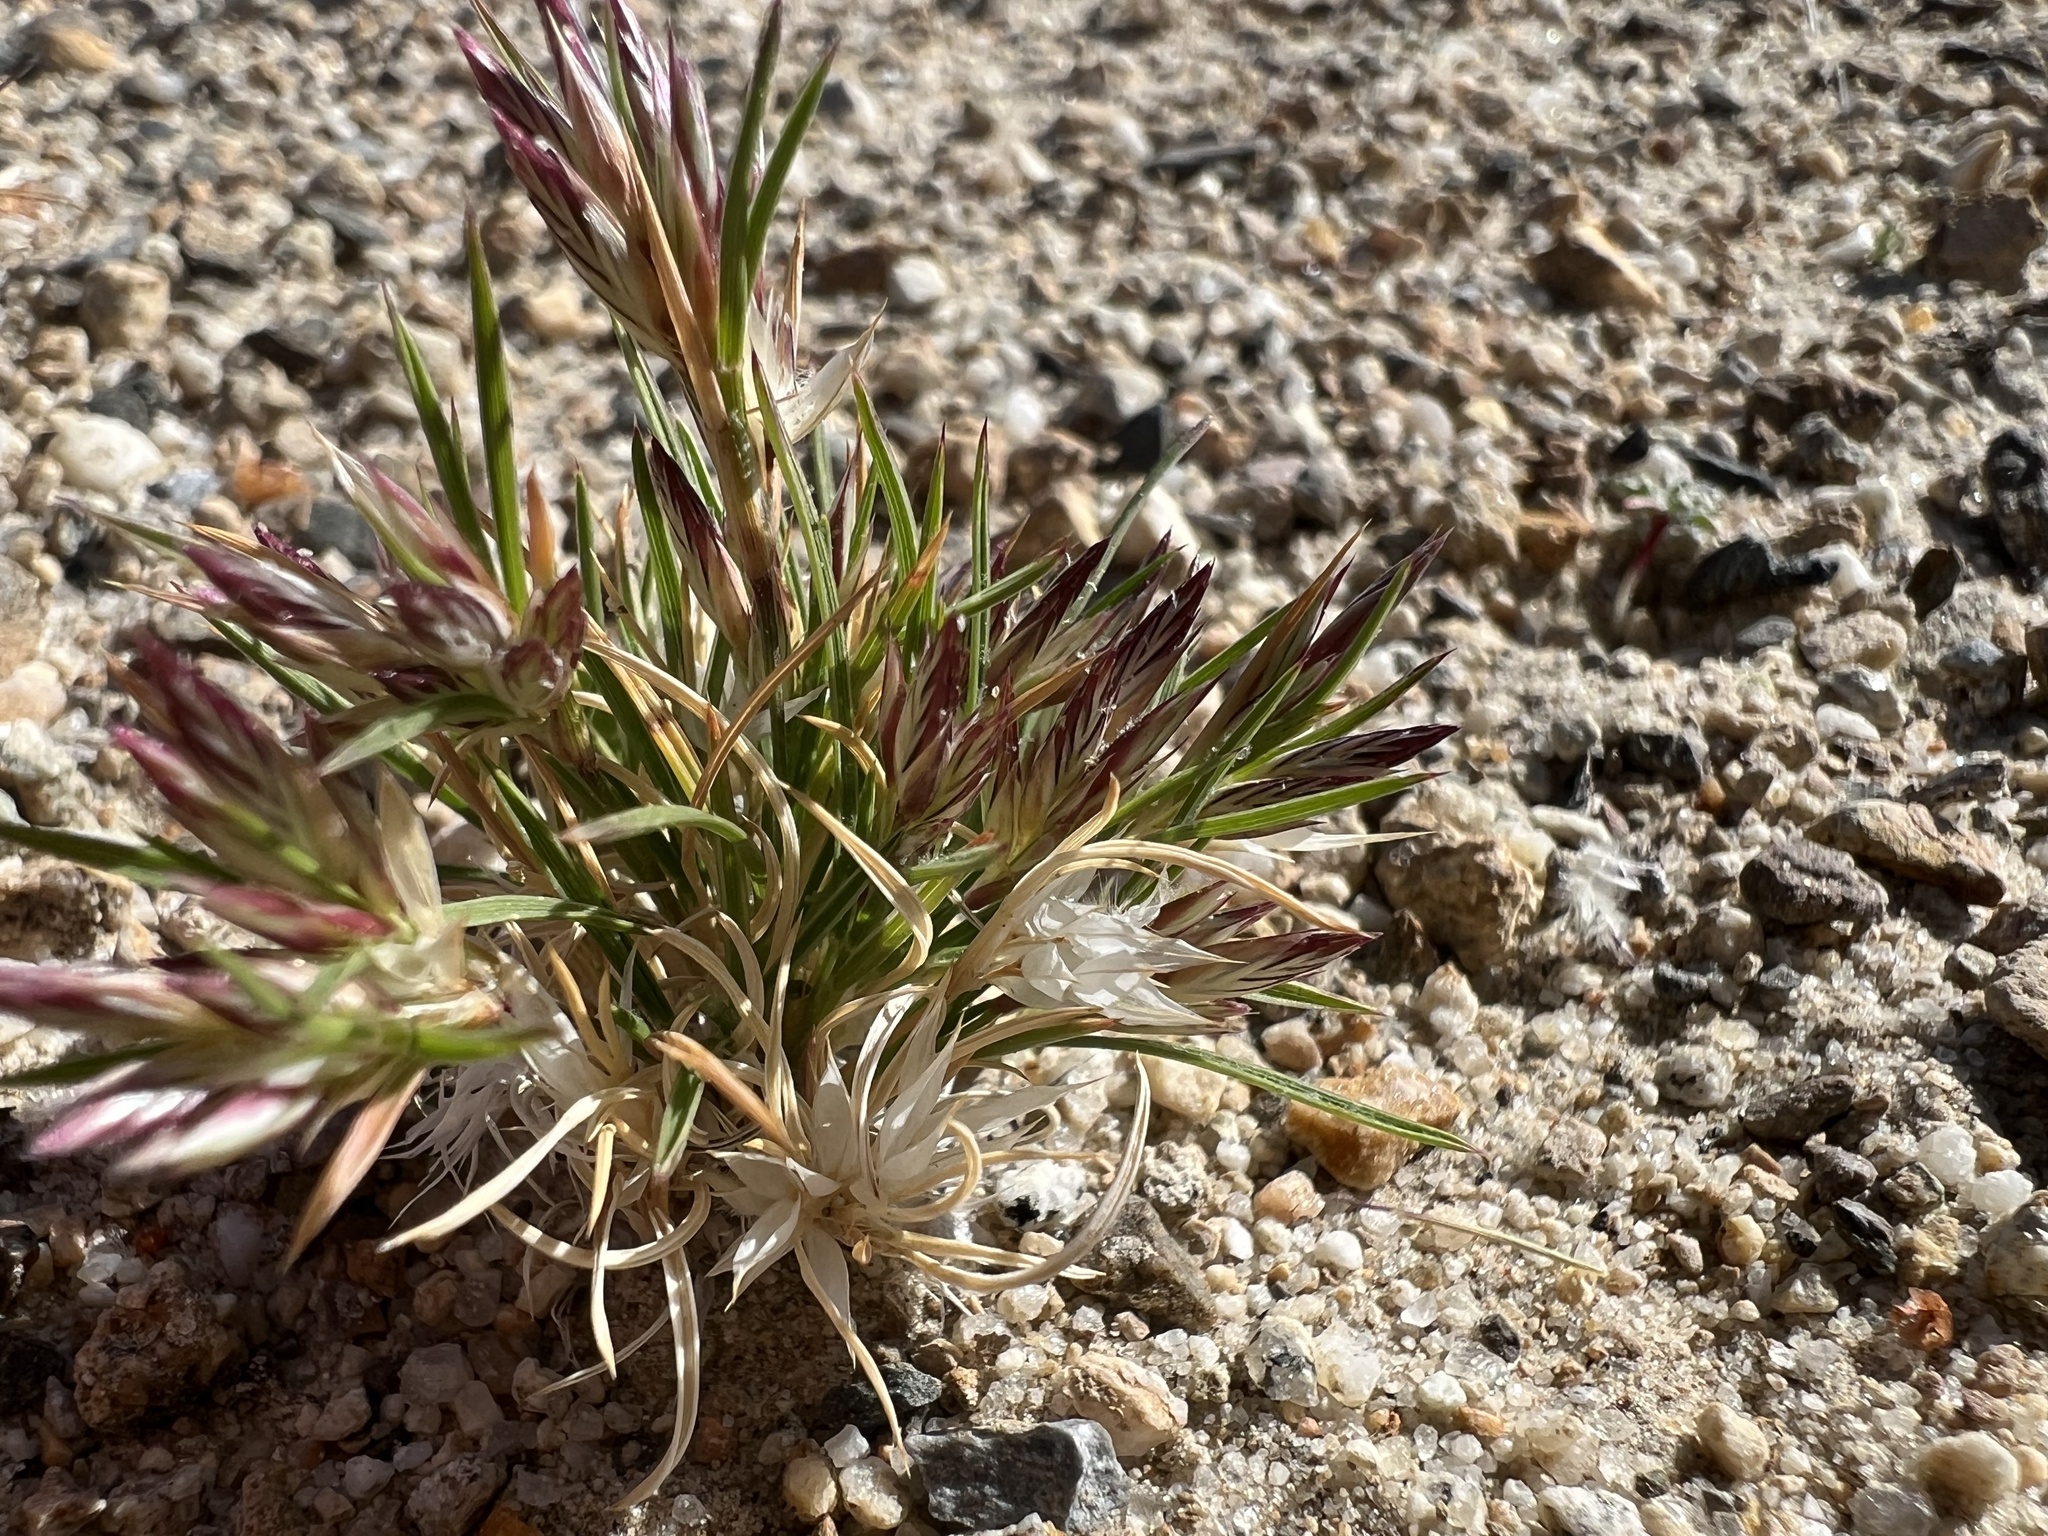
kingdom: Plantae
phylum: Tracheophyta
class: Liliopsida
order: Poales
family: Poaceae
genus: Dasyochloa
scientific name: Dasyochloa pulchella
